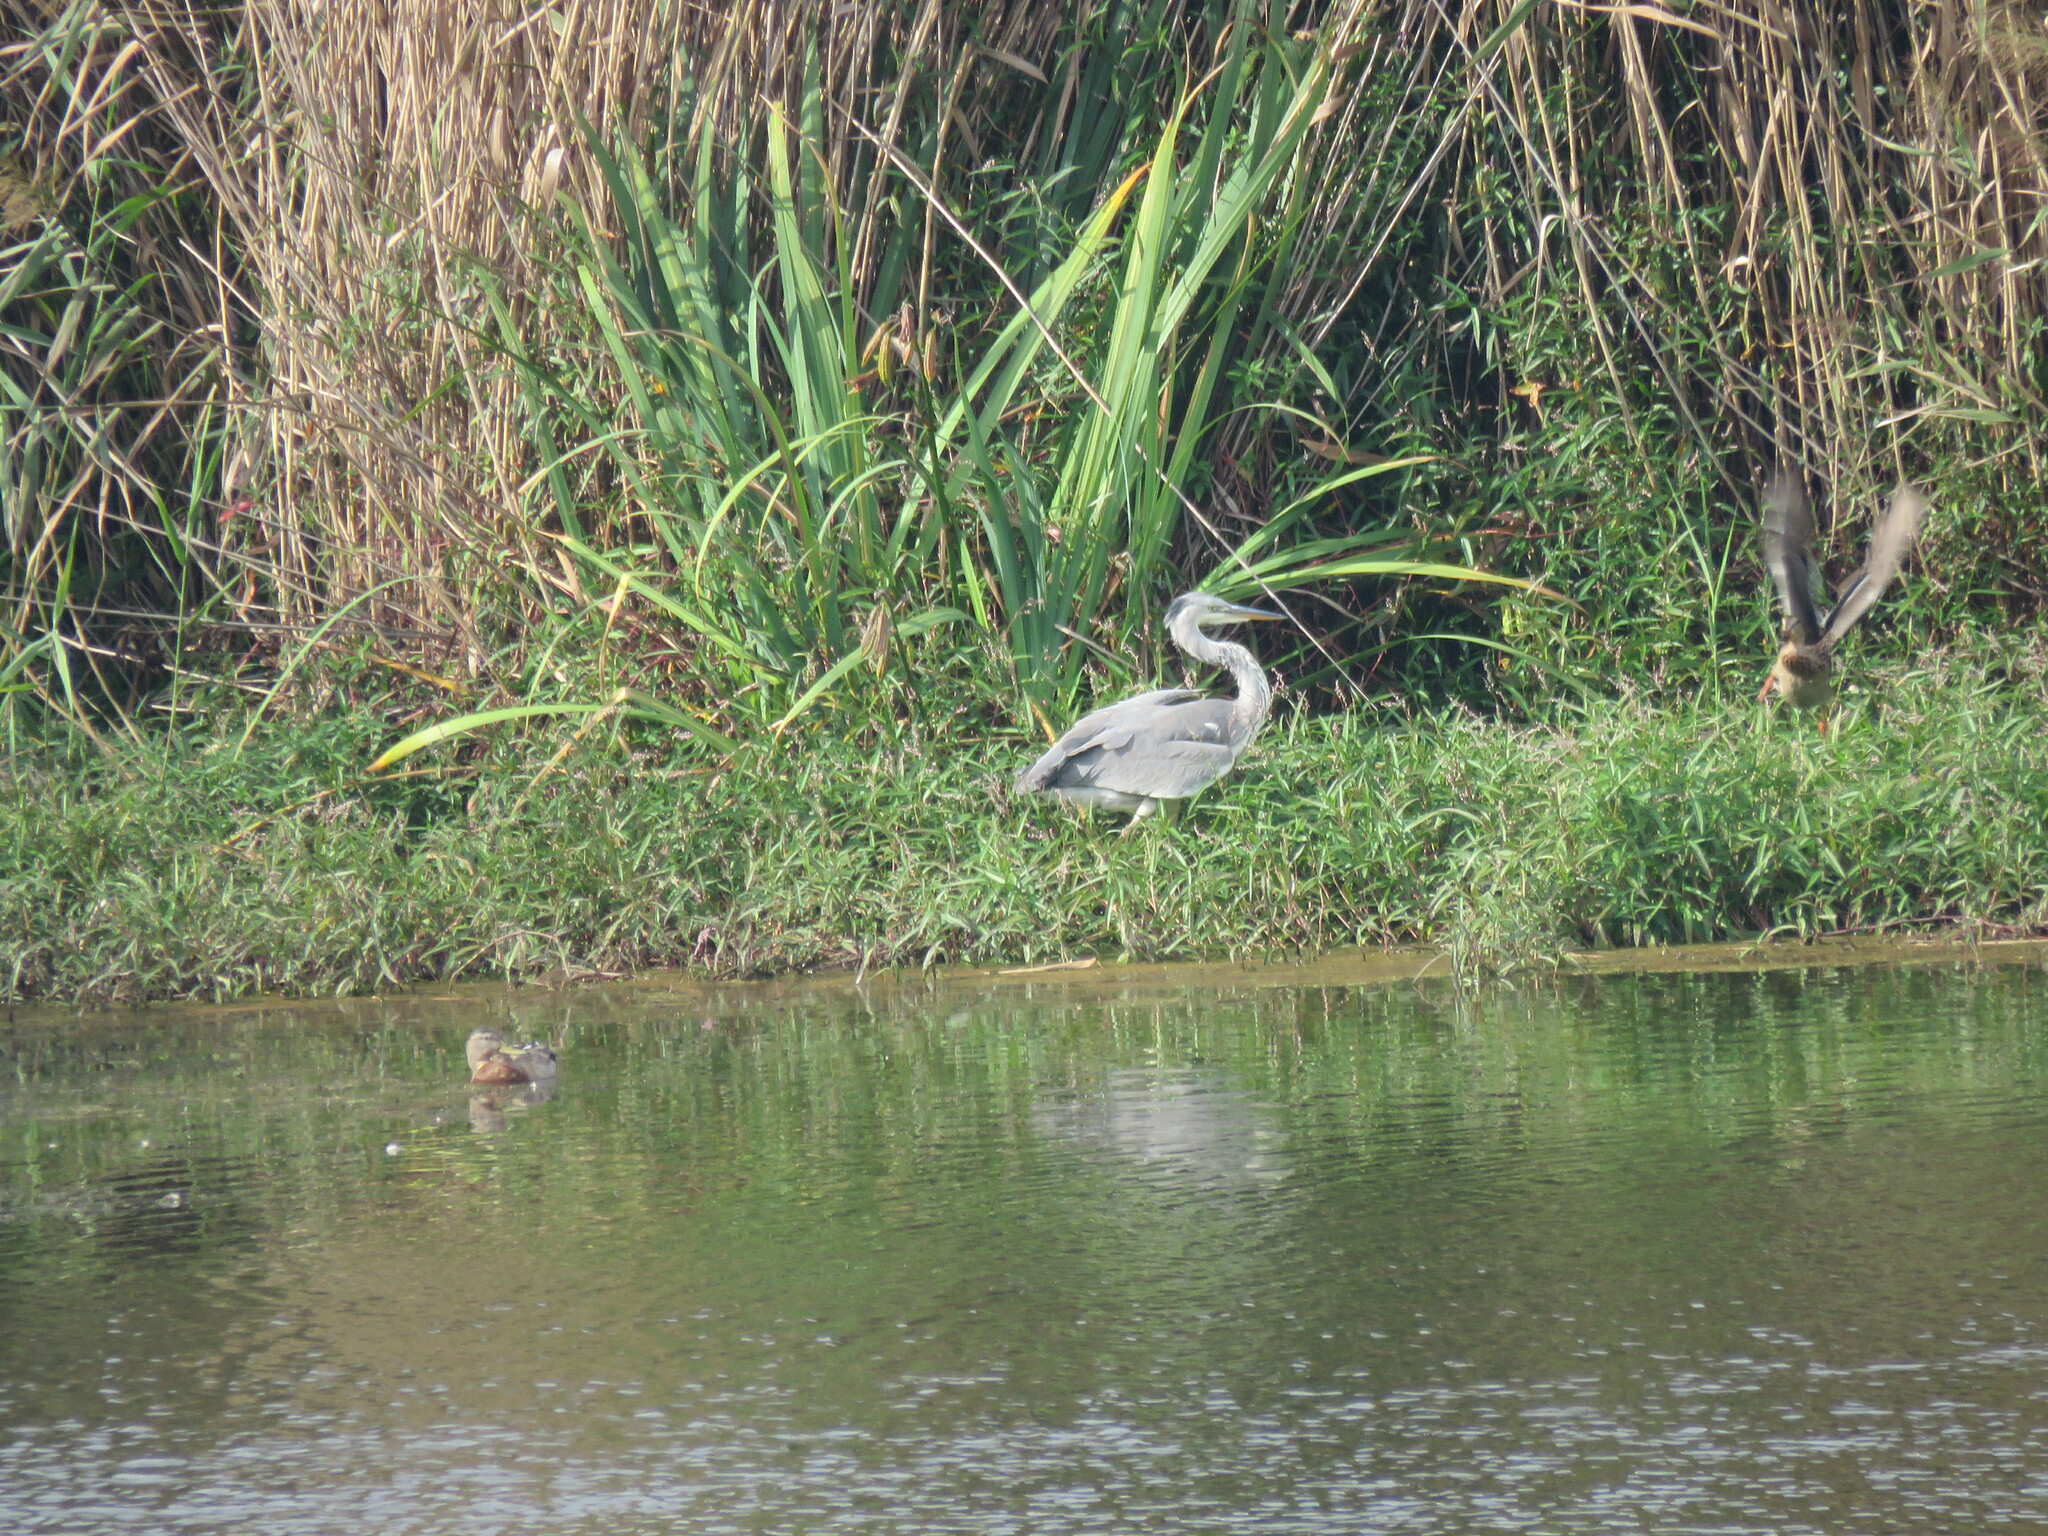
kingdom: Animalia
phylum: Chordata
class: Aves
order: Pelecaniformes
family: Ardeidae
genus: Ardea
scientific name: Ardea cinerea
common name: Grey heron
